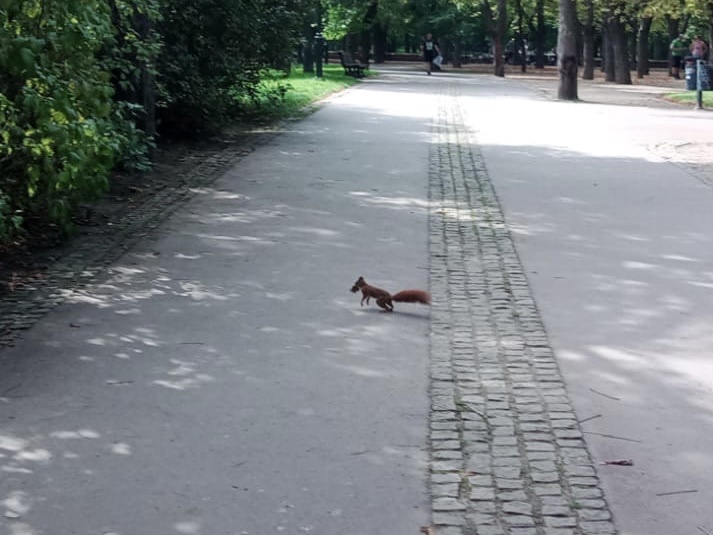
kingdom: Animalia
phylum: Chordata
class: Mammalia
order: Rodentia
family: Sciuridae
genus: Sciurus
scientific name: Sciurus vulgaris
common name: Eurasian red squirrel
